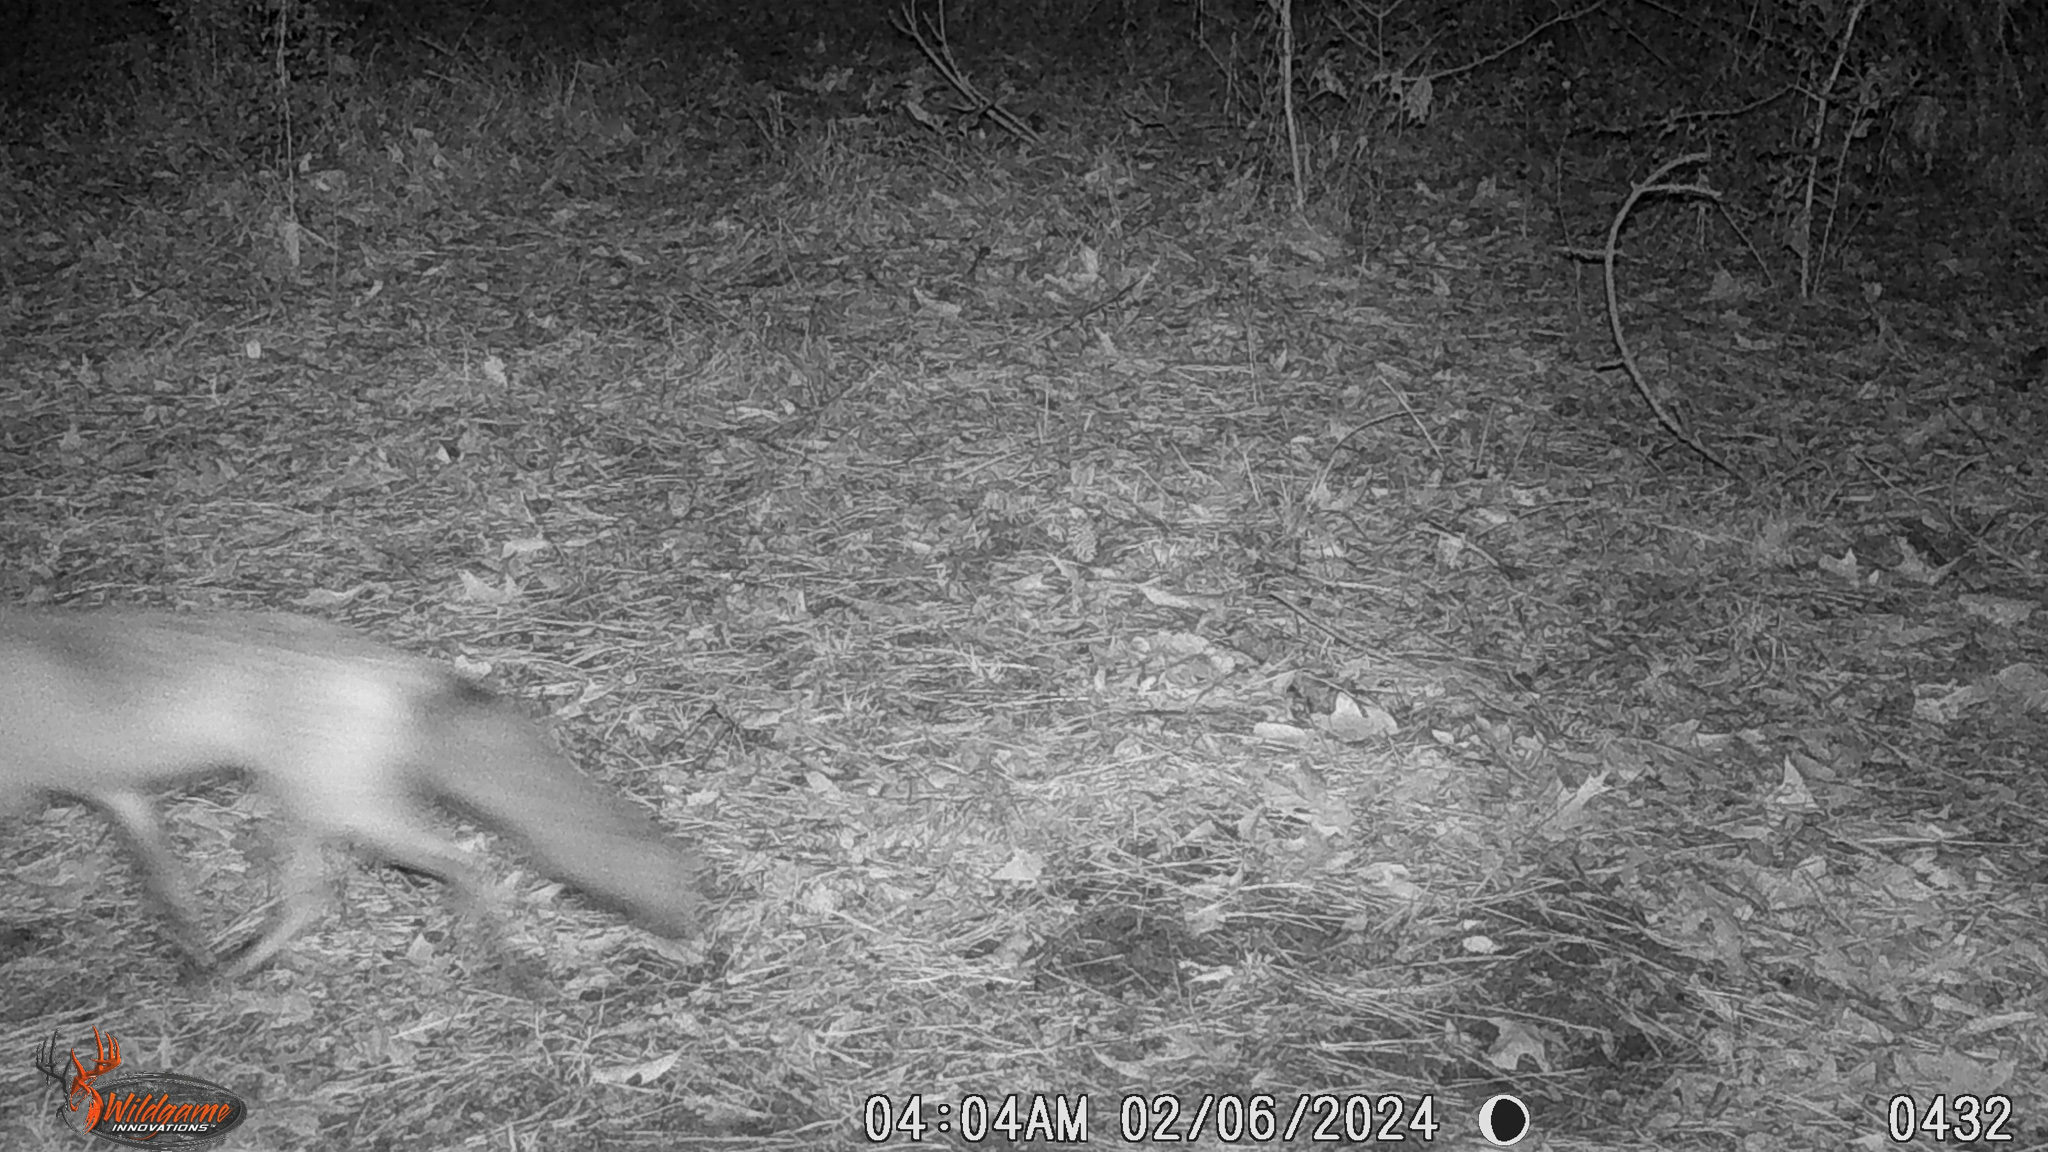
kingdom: Animalia
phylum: Chordata
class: Mammalia
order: Carnivora
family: Canidae
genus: Vulpes
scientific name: Vulpes vulpes
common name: Red fox
